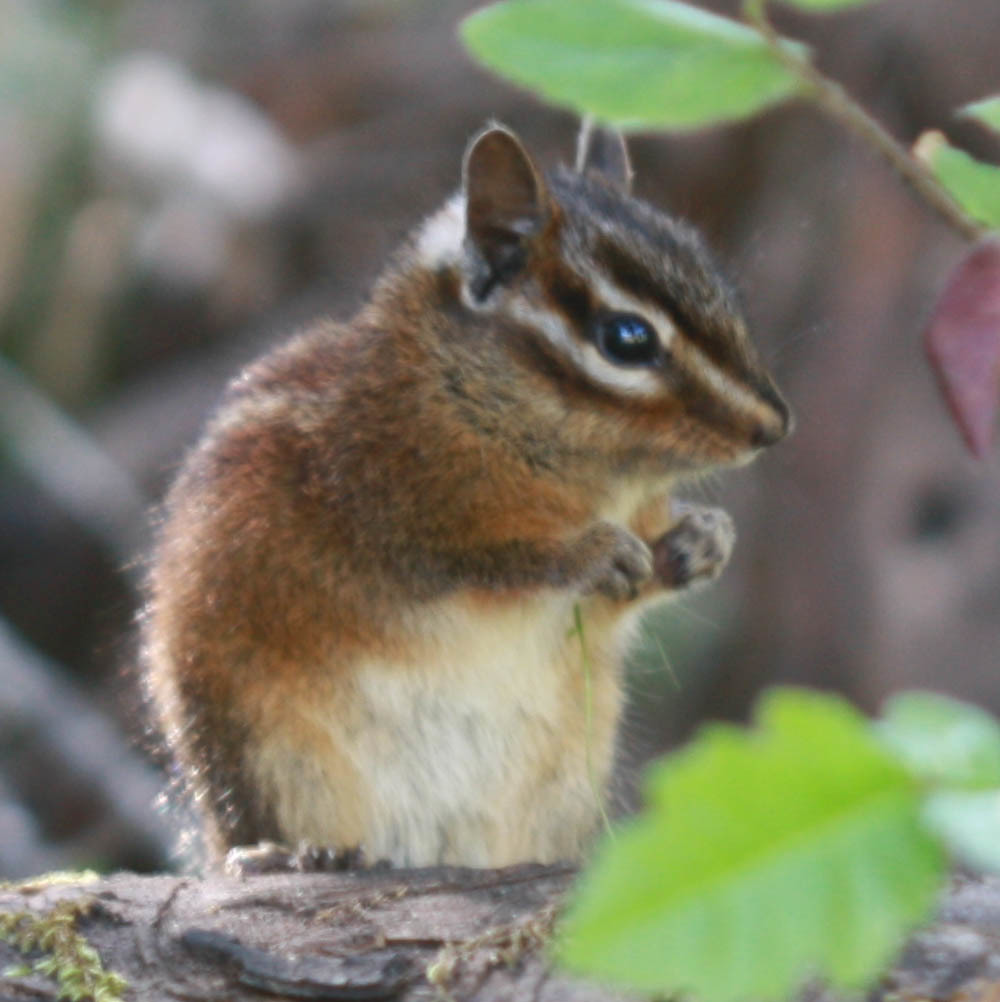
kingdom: Animalia
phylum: Chordata
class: Mammalia
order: Rodentia
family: Sciuridae
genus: Tamias
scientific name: Tamias sonomae
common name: Sonoma chipmunk
